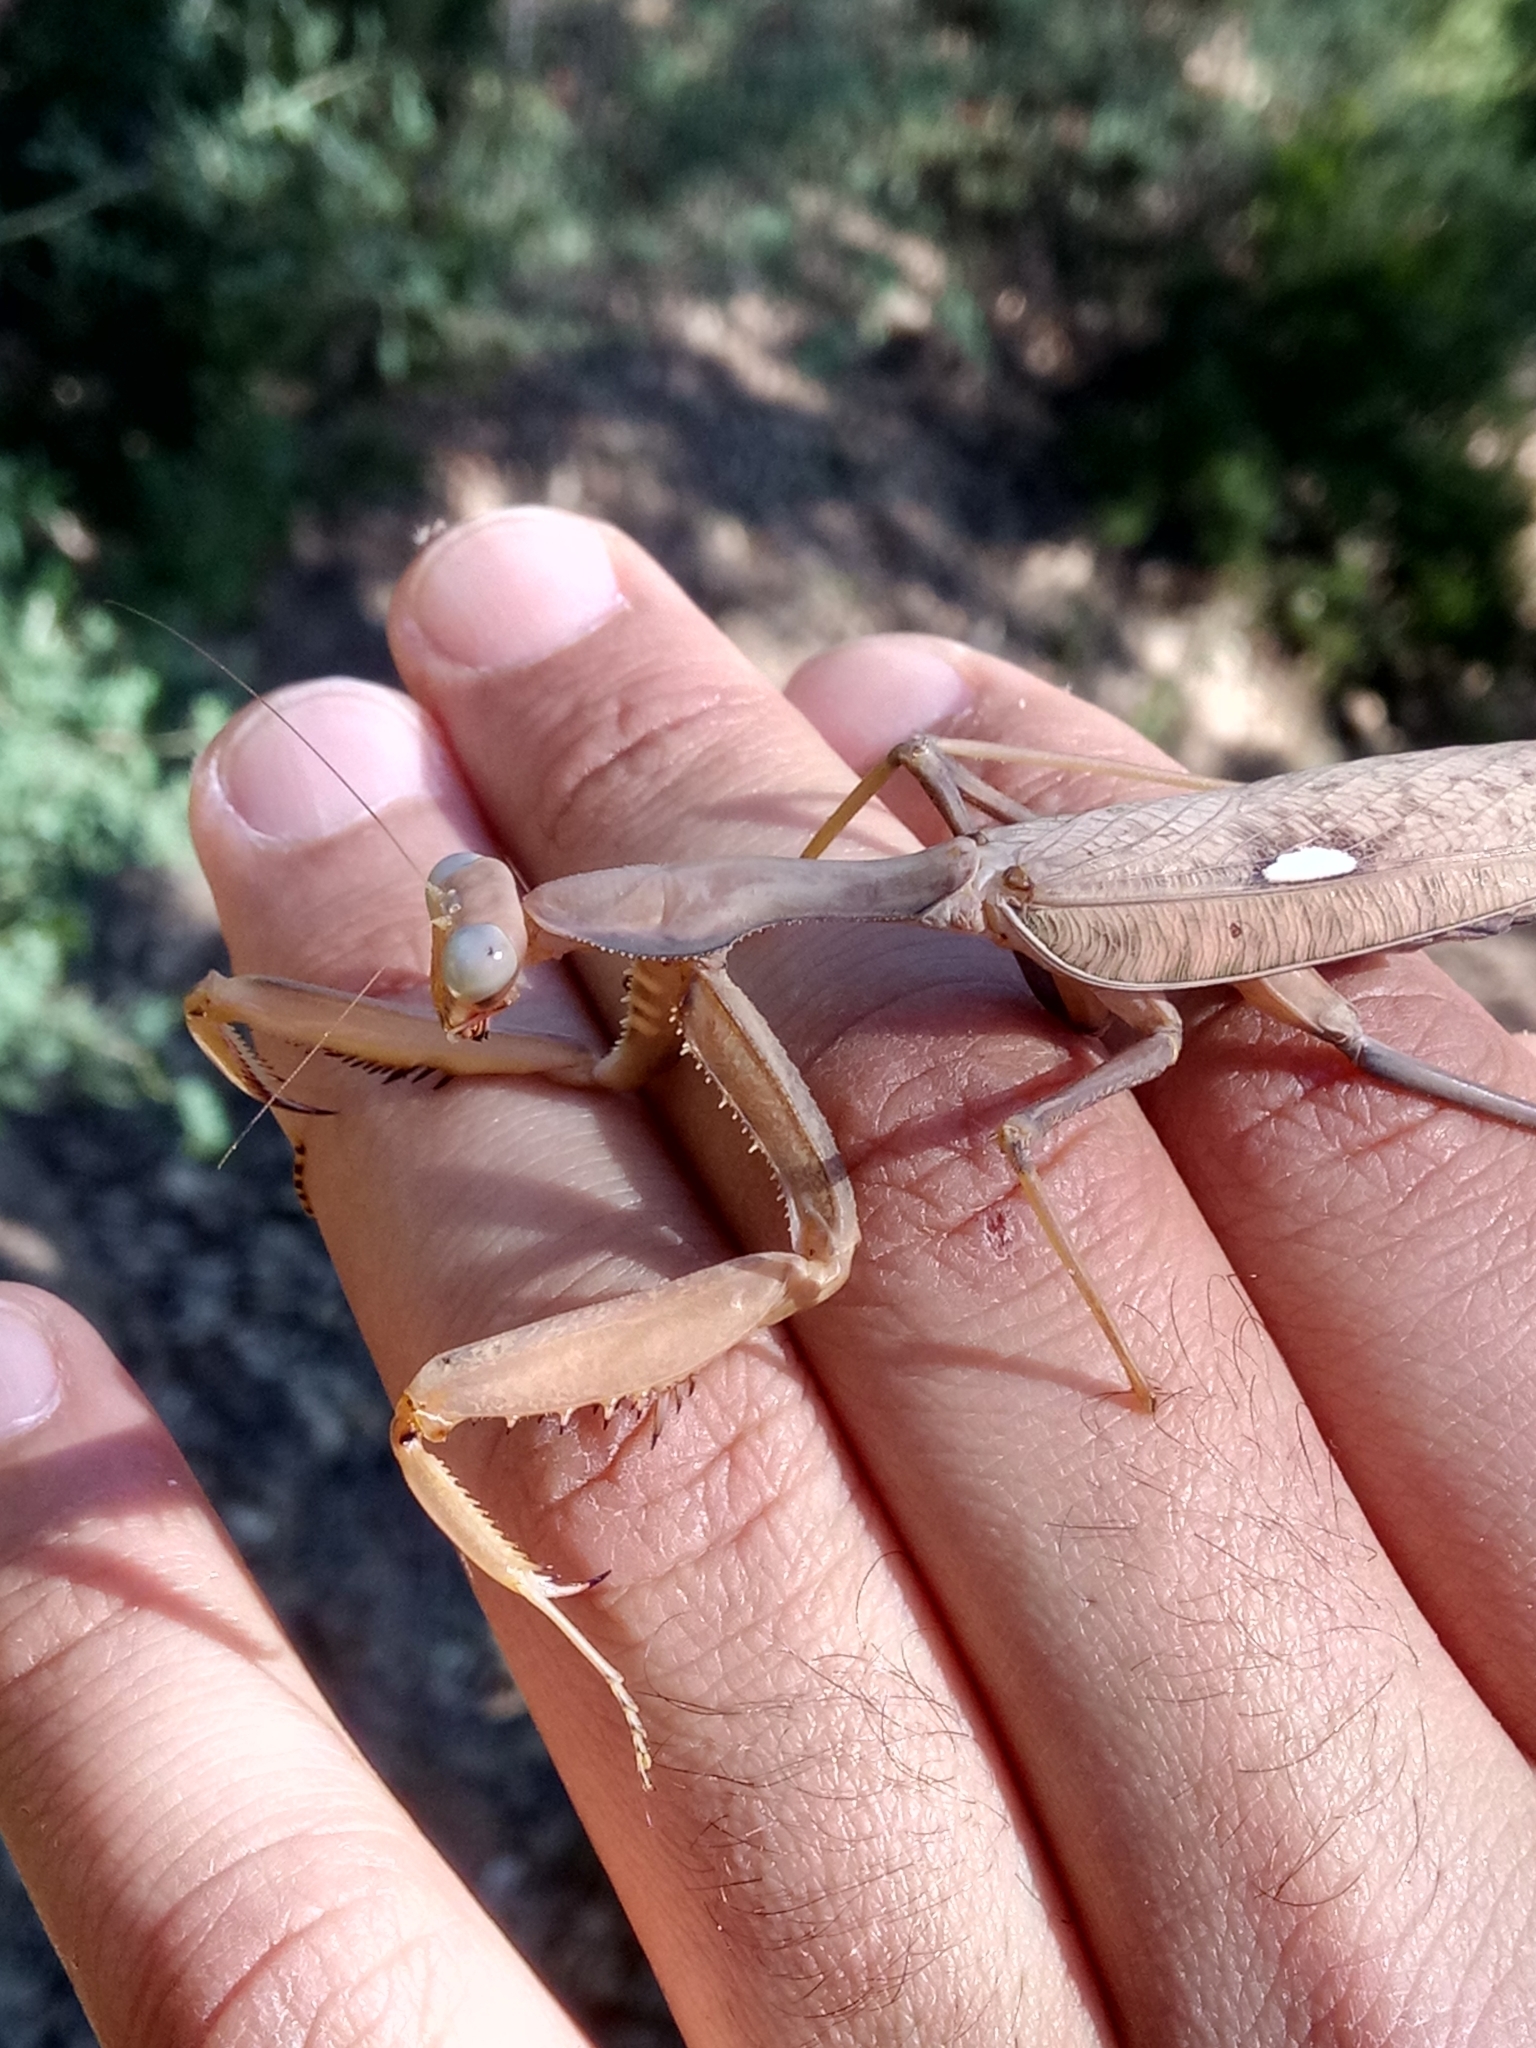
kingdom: Animalia
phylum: Arthropoda
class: Insecta
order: Mantodea
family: Mantidae
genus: Sphodromantis
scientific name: Sphodromantis viridis
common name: Giant african mantis
